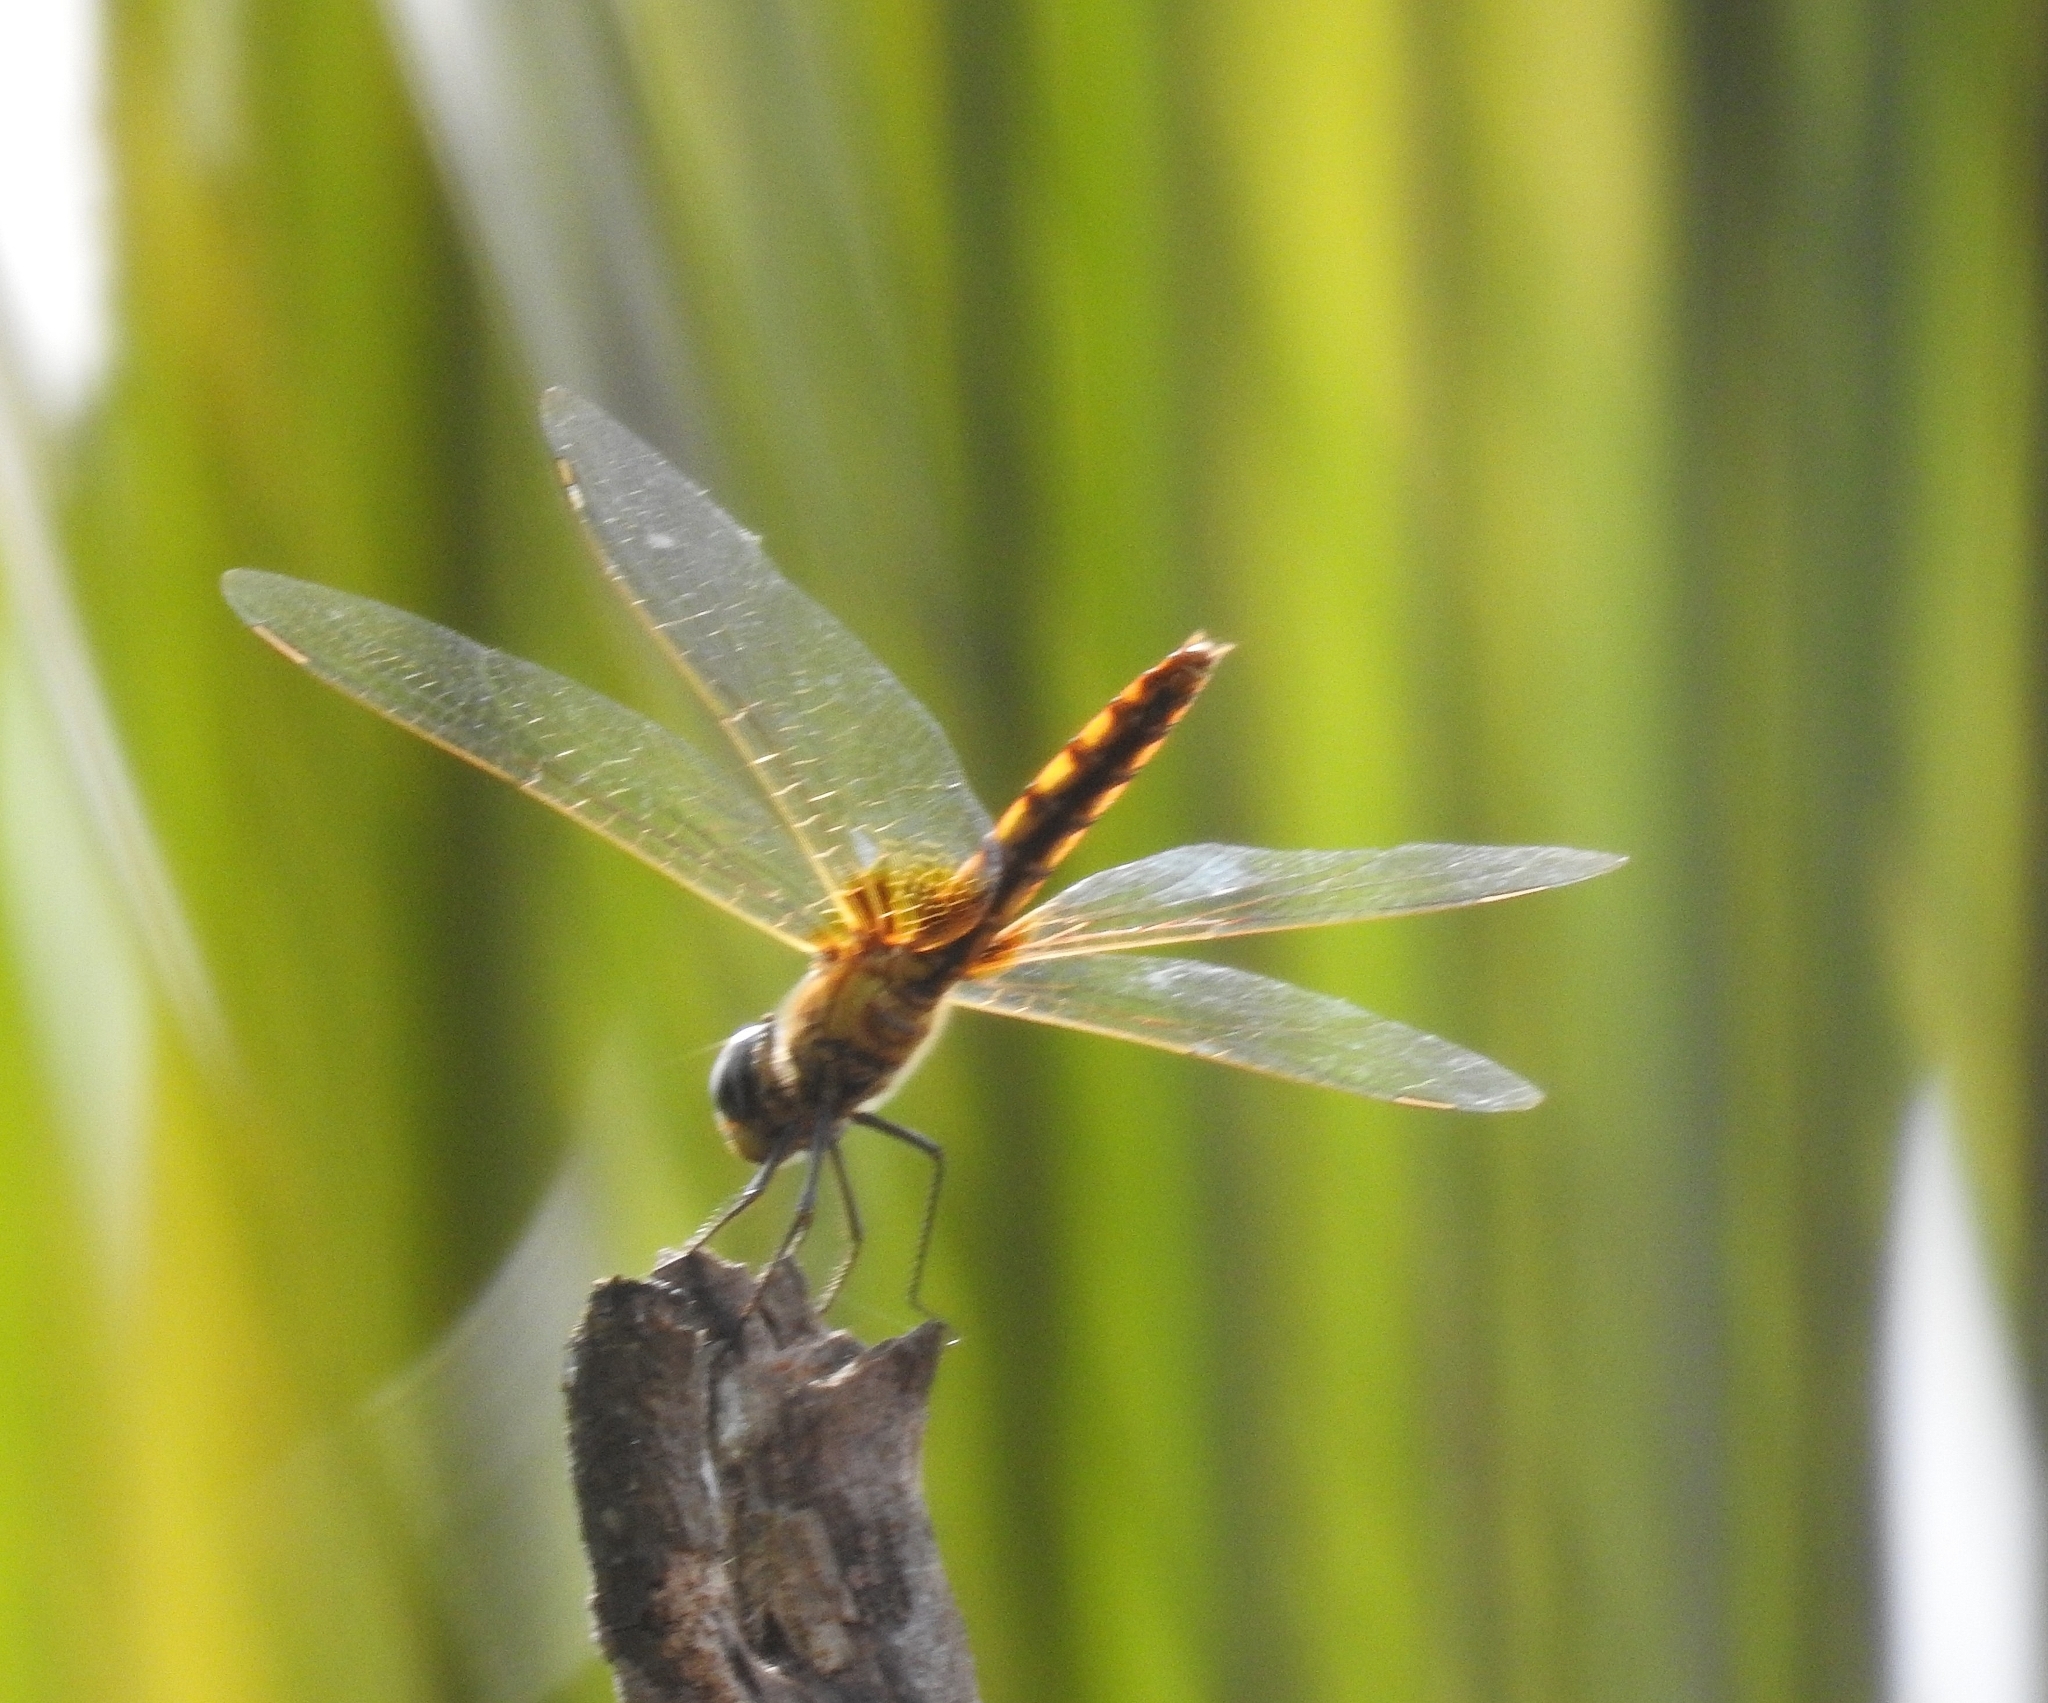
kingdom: Animalia
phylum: Arthropoda
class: Insecta
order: Odonata
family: Libellulidae
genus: Urothemis
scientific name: Urothemis signata
